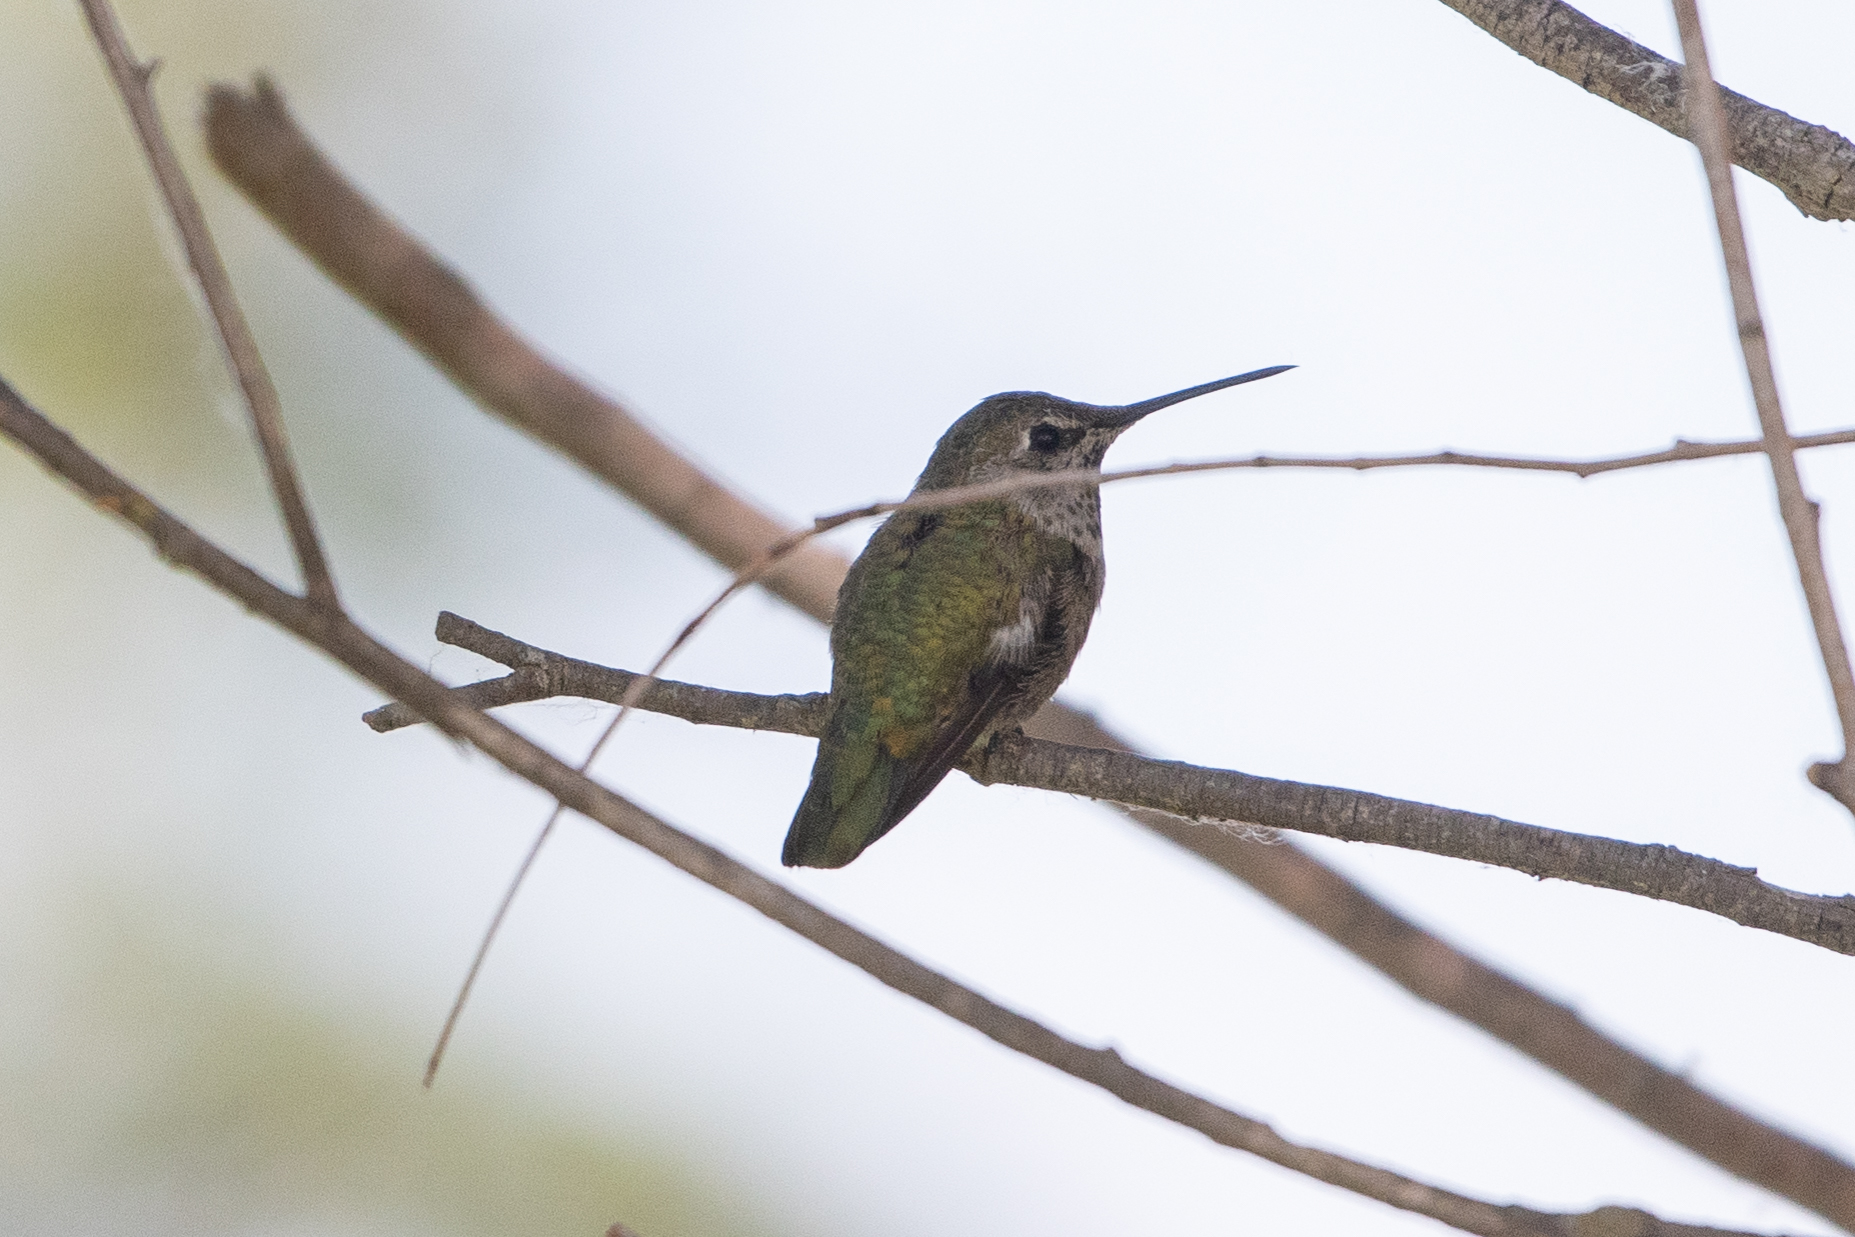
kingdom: Animalia
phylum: Chordata
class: Aves
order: Apodiformes
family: Trochilidae
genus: Calypte
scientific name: Calypte anna
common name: Anna's hummingbird
